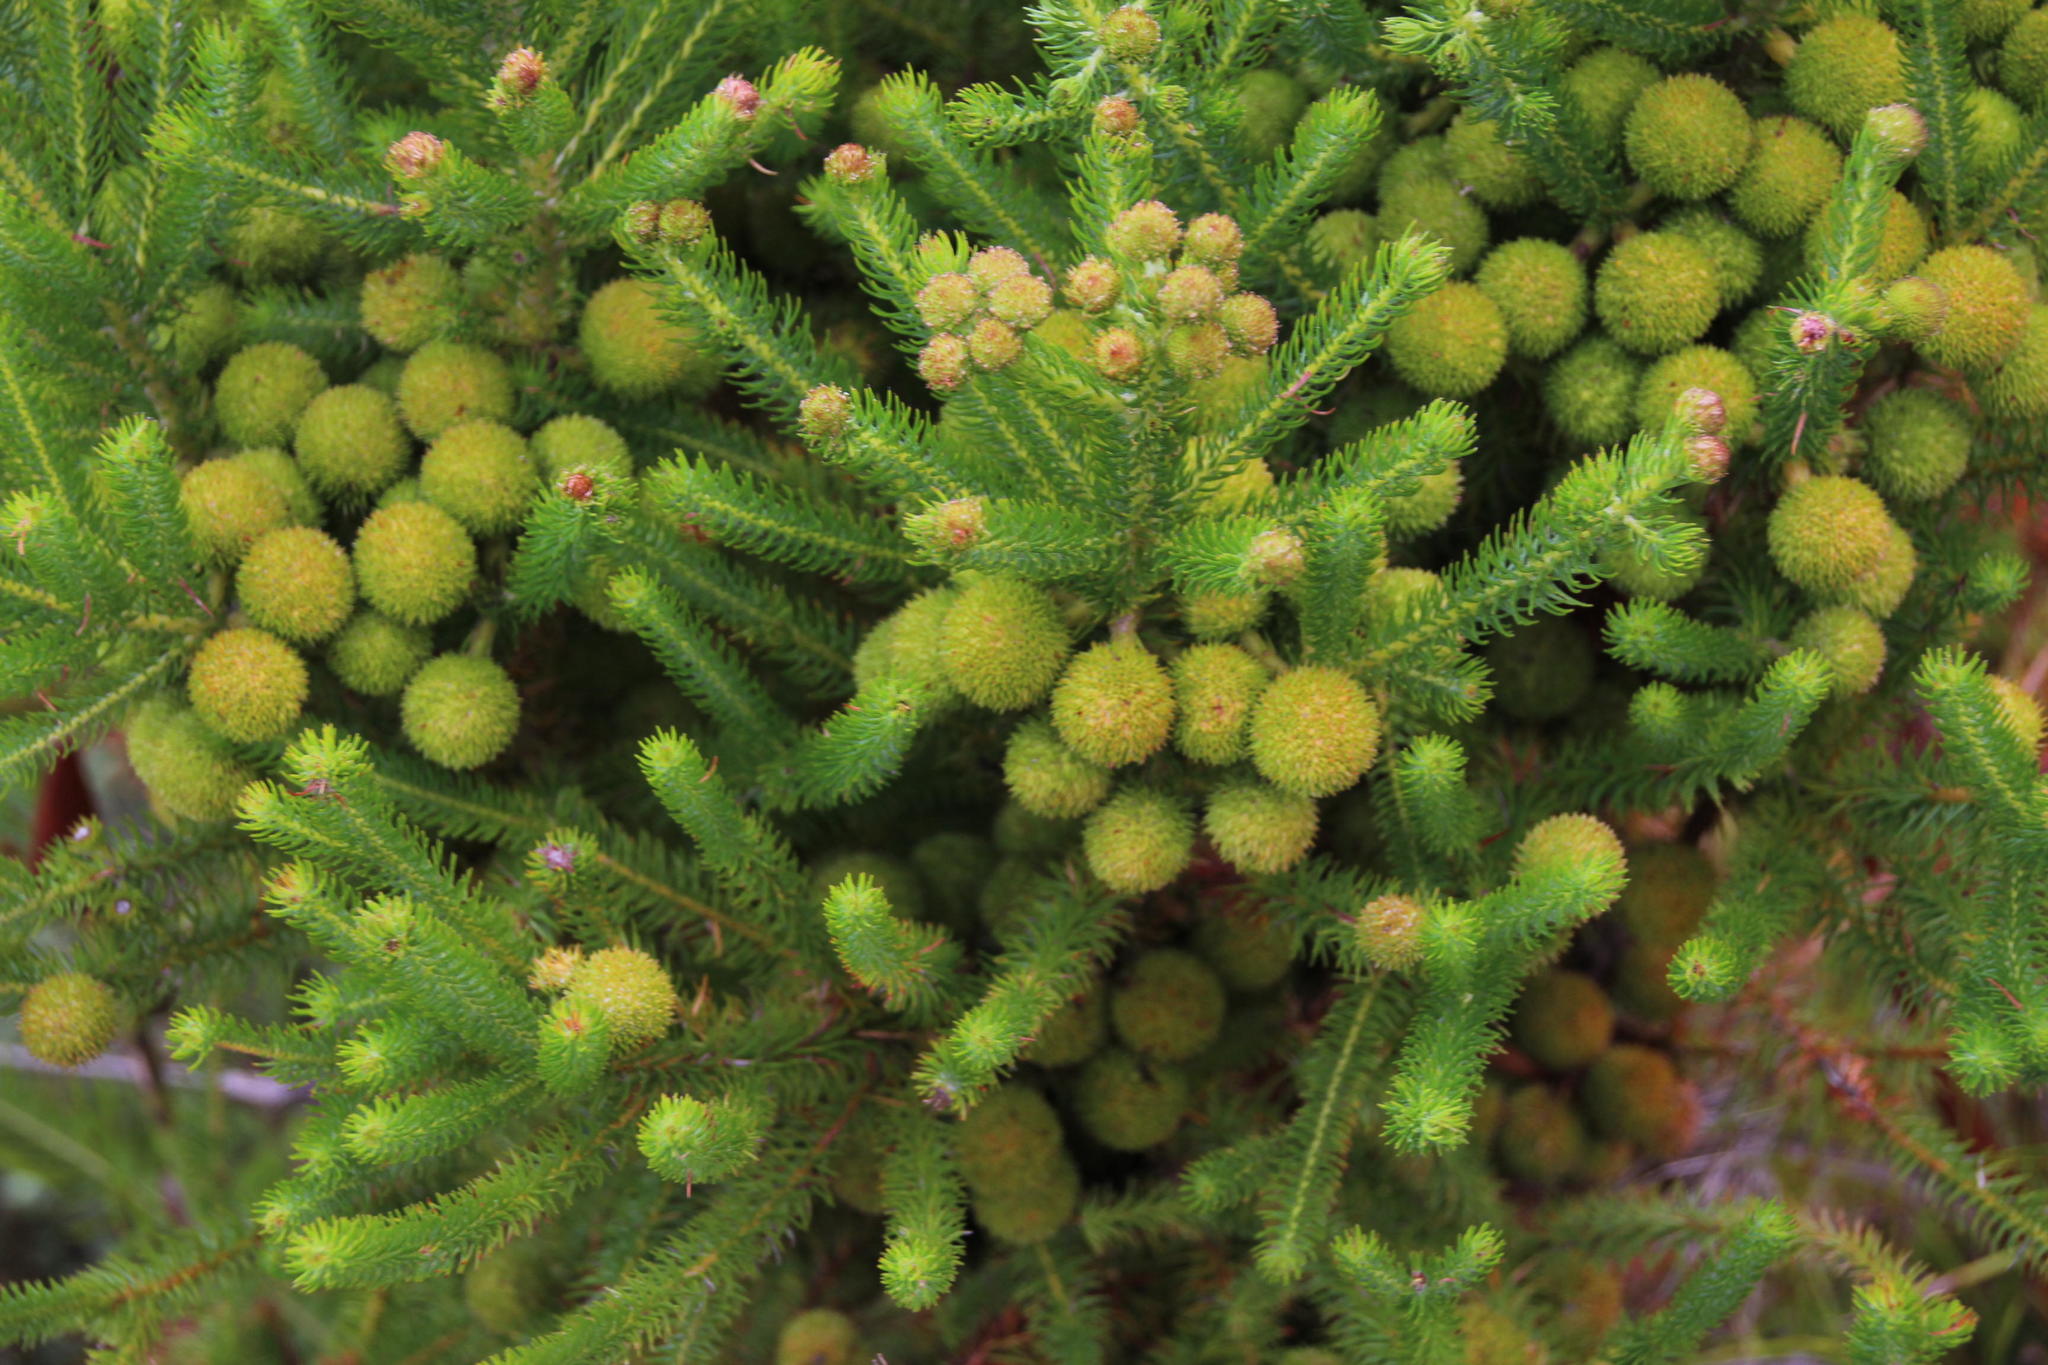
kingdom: Plantae
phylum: Tracheophyta
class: Magnoliopsida
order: Bruniales
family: Bruniaceae
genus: Berzelia
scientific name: Berzelia galpinii
